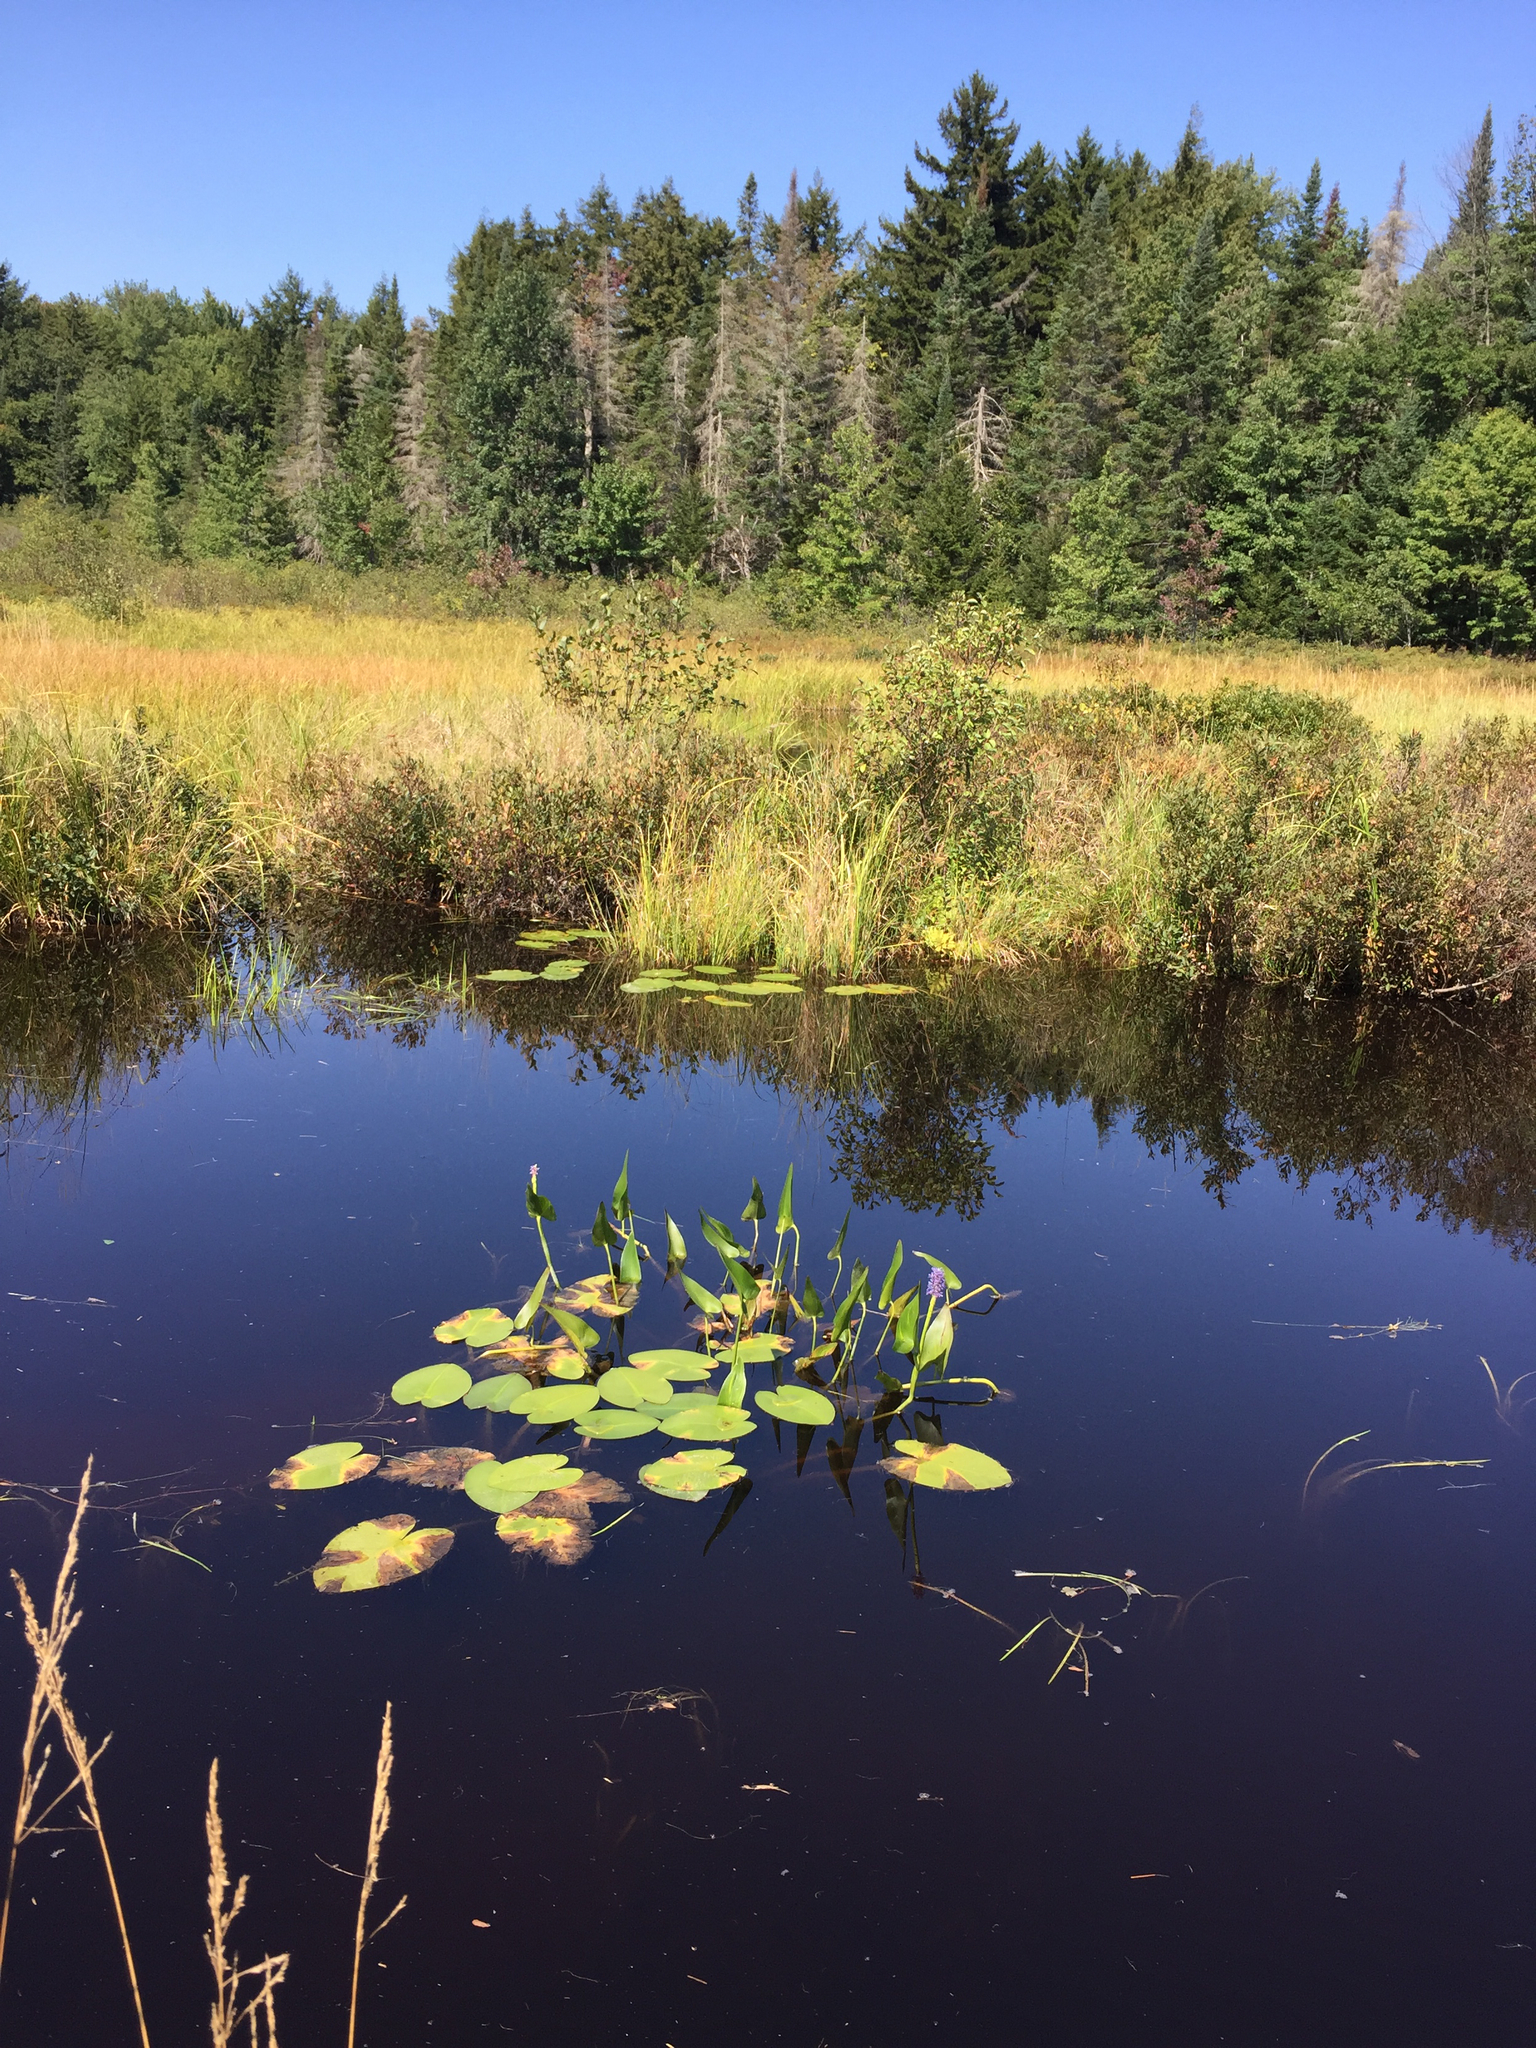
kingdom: Plantae
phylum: Tracheophyta
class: Liliopsida
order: Commelinales
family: Pontederiaceae
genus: Pontederia
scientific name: Pontederia cordata
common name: Pickerelweed
